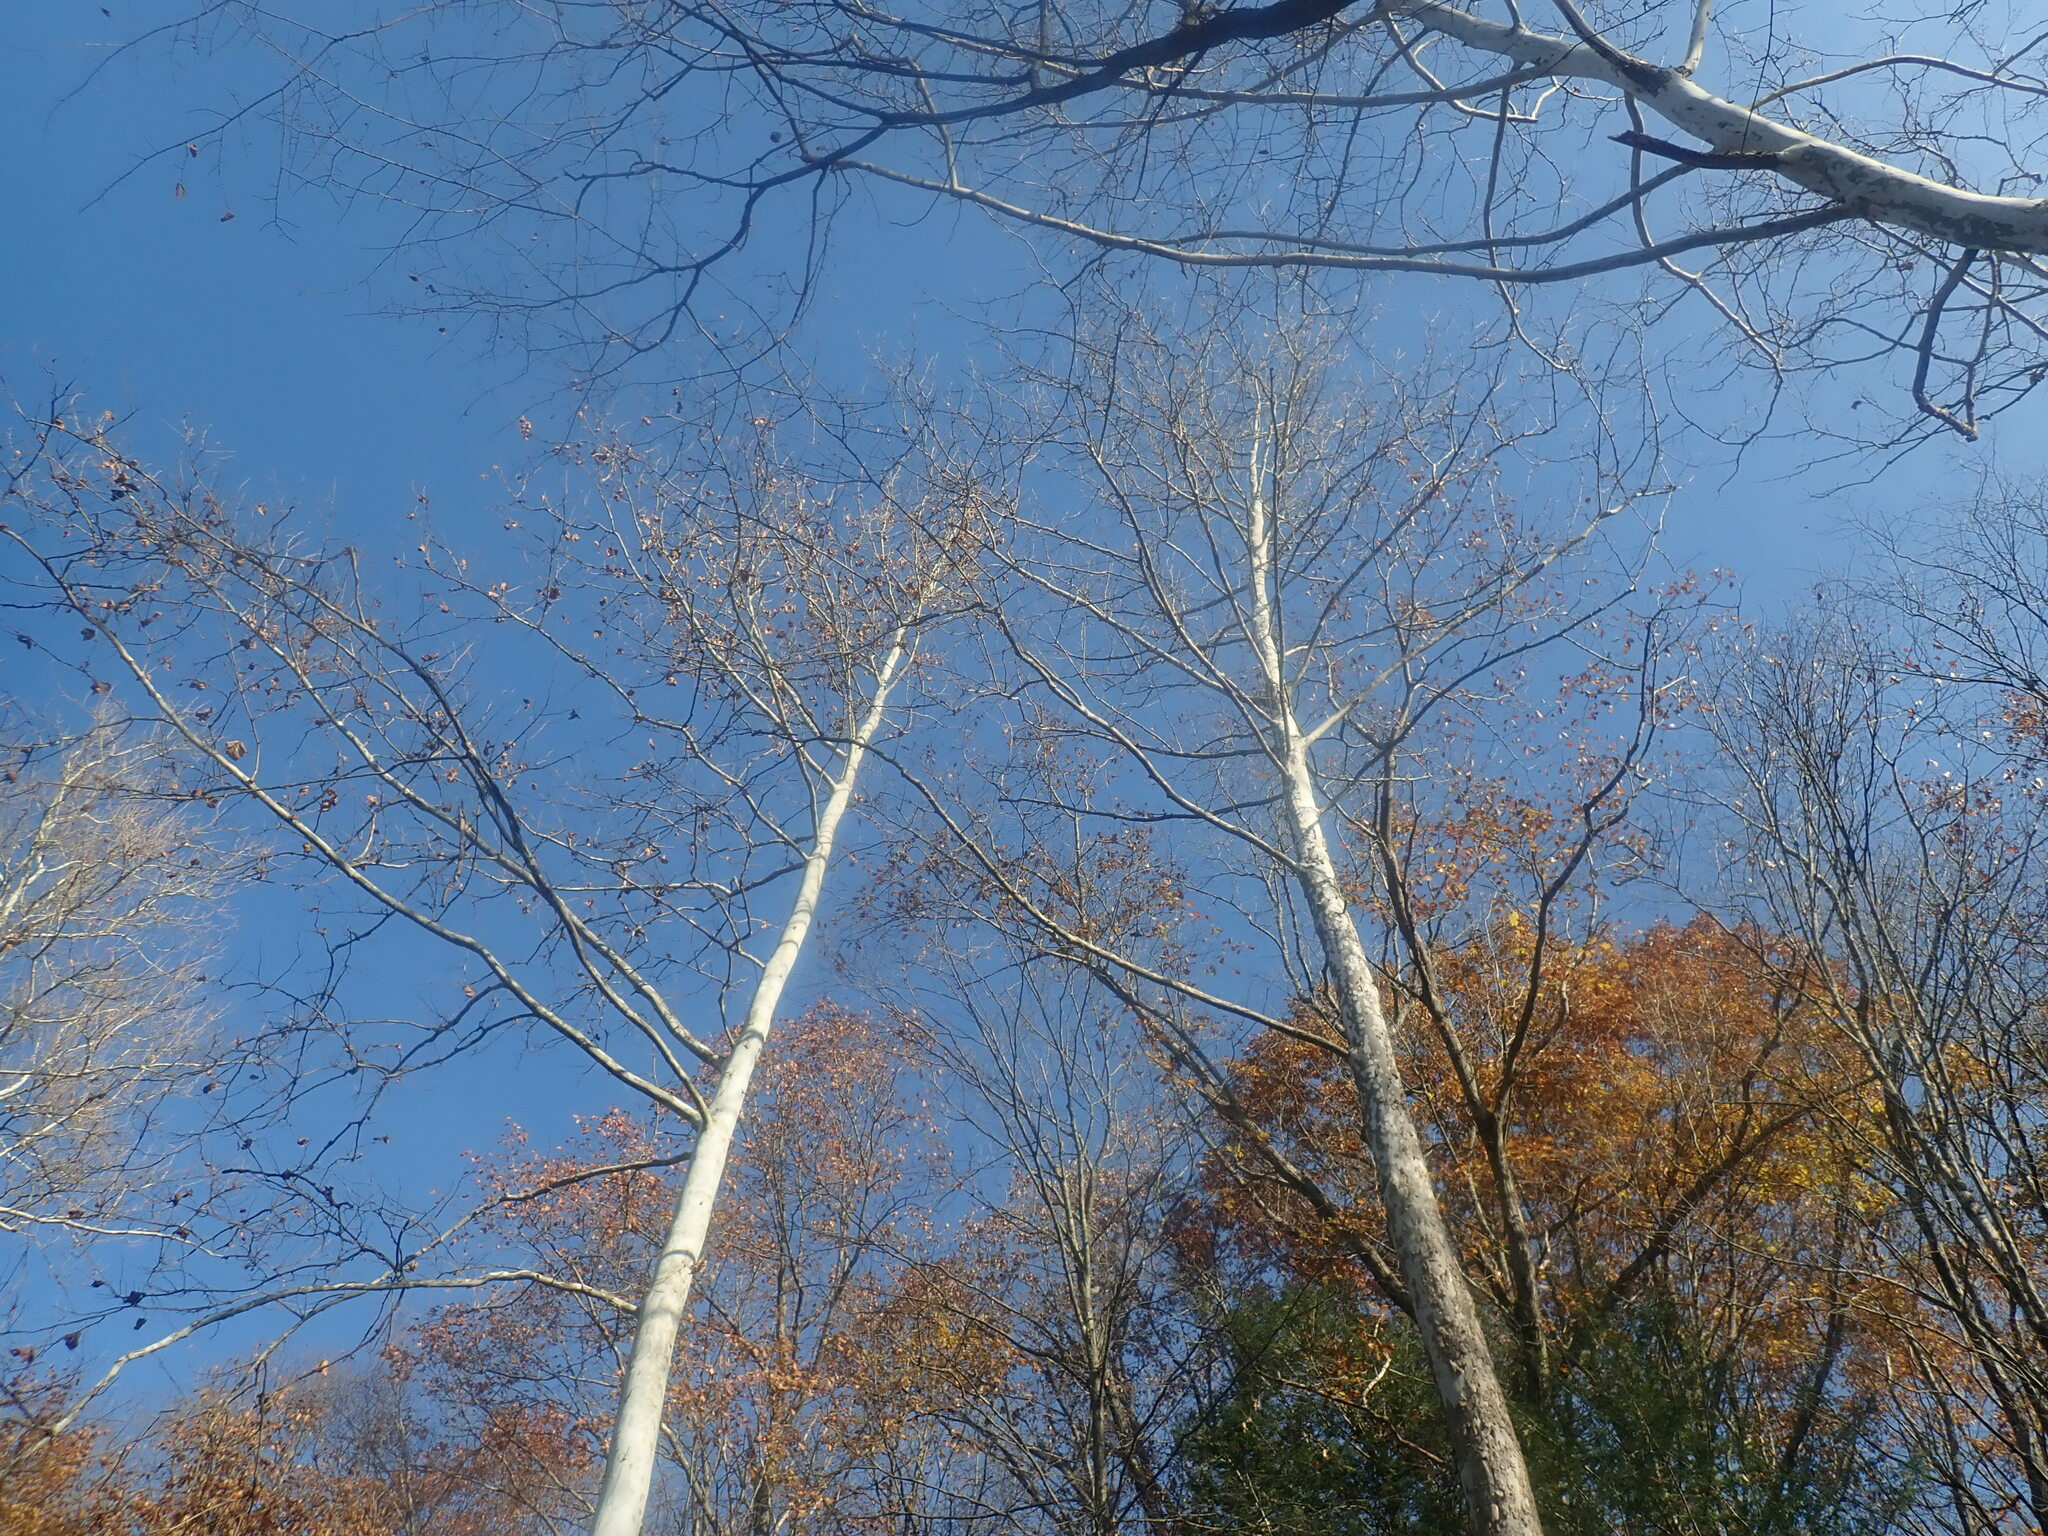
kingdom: Plantae
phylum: Tracheophyta
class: Magnoliopsida
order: Proteales
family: Platanaceae
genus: Platanus
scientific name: Platanus occidentalis
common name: American sycamore
